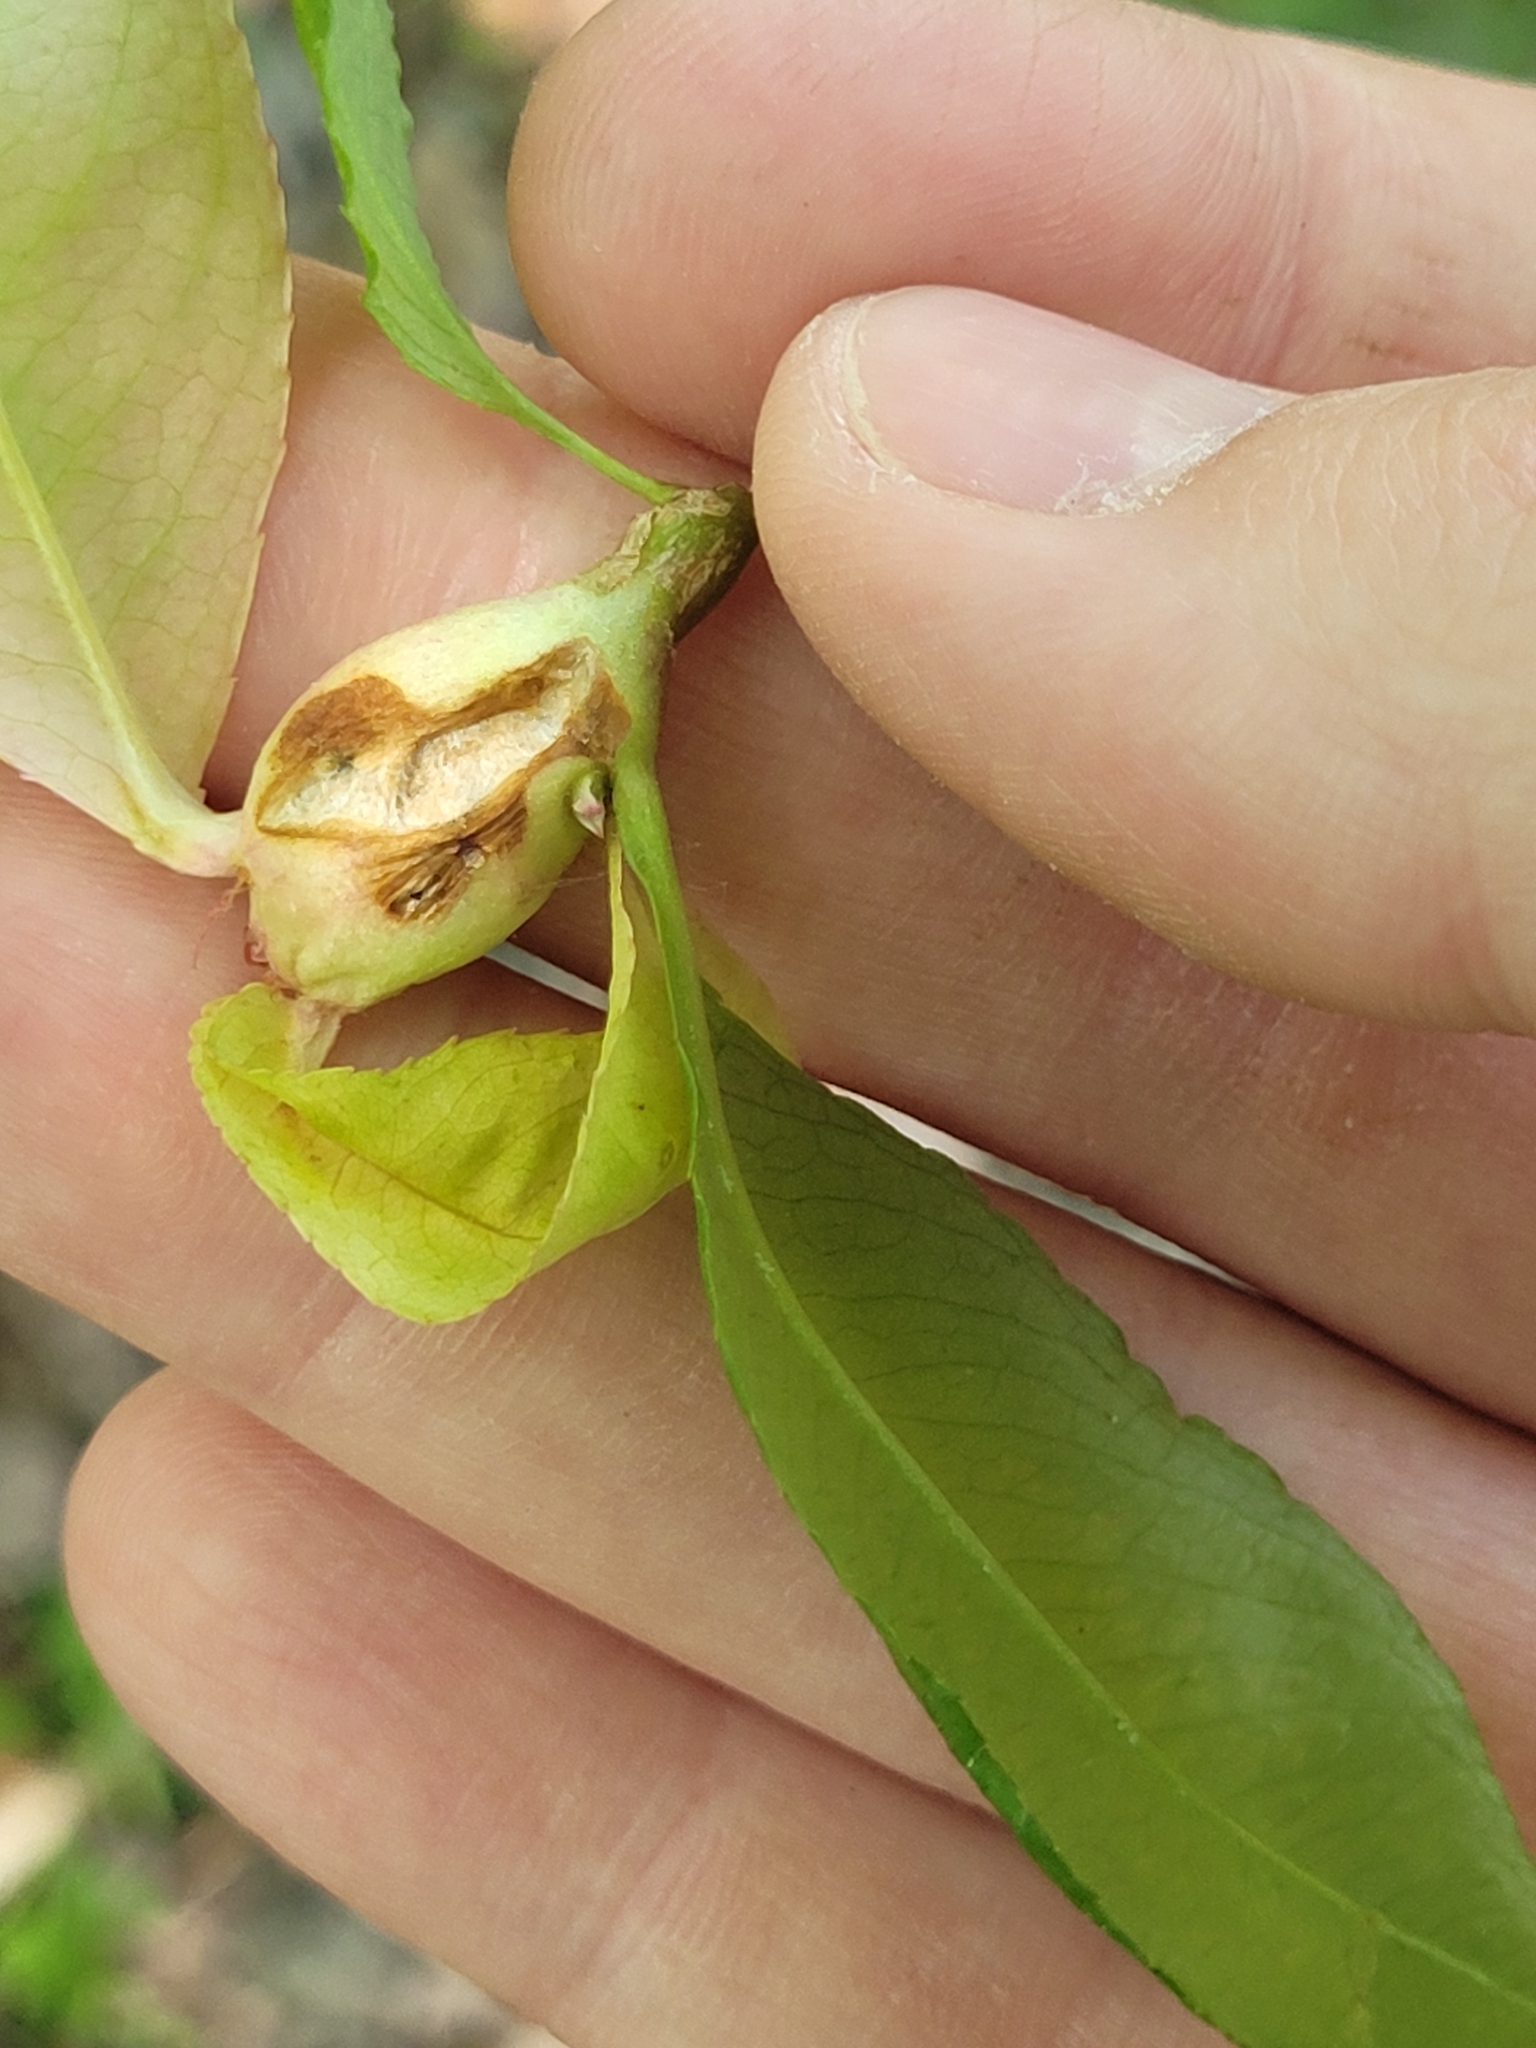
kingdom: Animalia
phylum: Arthropoda
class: Insecta
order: Diptera
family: Cecidomyiidae
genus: Contarinia
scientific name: Contarinia cerasiserotinae
